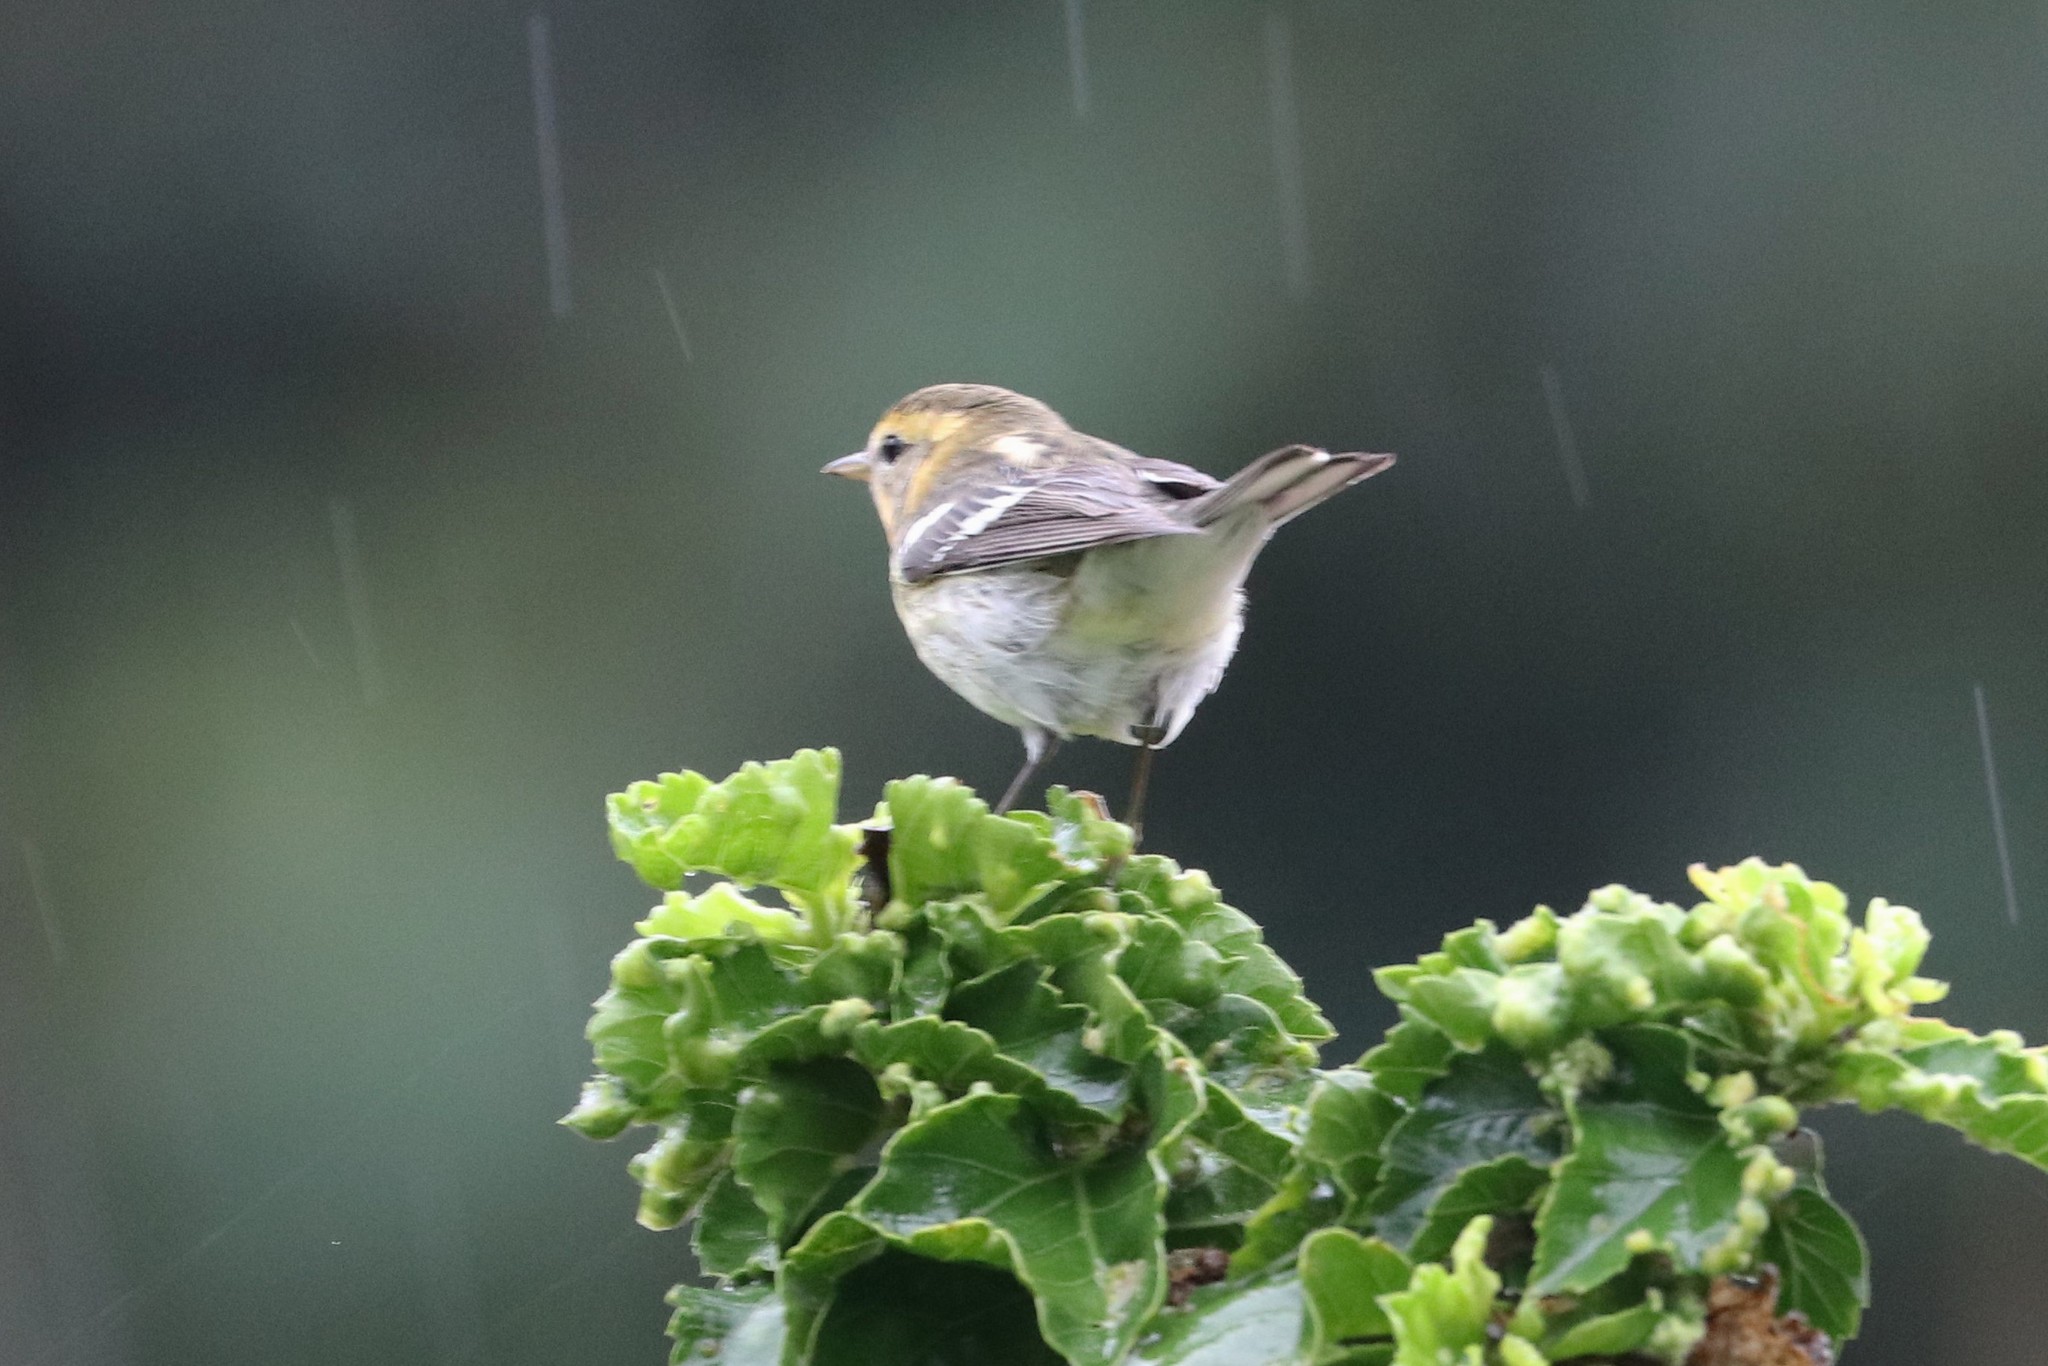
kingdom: Animalia
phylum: Chordata
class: Aves
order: Passeriformes
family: Parulidae
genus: Setophaga
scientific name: Setophaga fusca
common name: Blackburnian warbler
